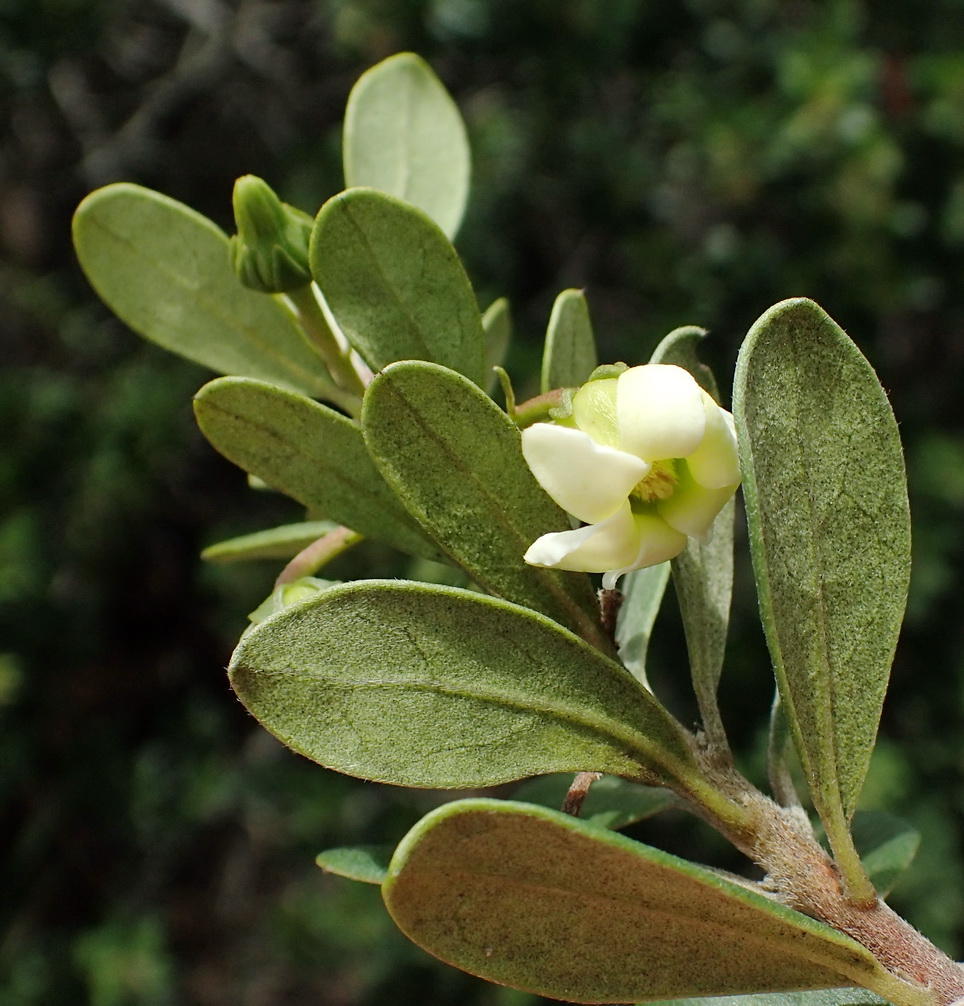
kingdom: Plantae
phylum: Tracheophyta
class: Magnoliopsida
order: Ericales
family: Ebenaceae
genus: Diospyros
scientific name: Diospyros dichrophylla
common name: Common star-apple
